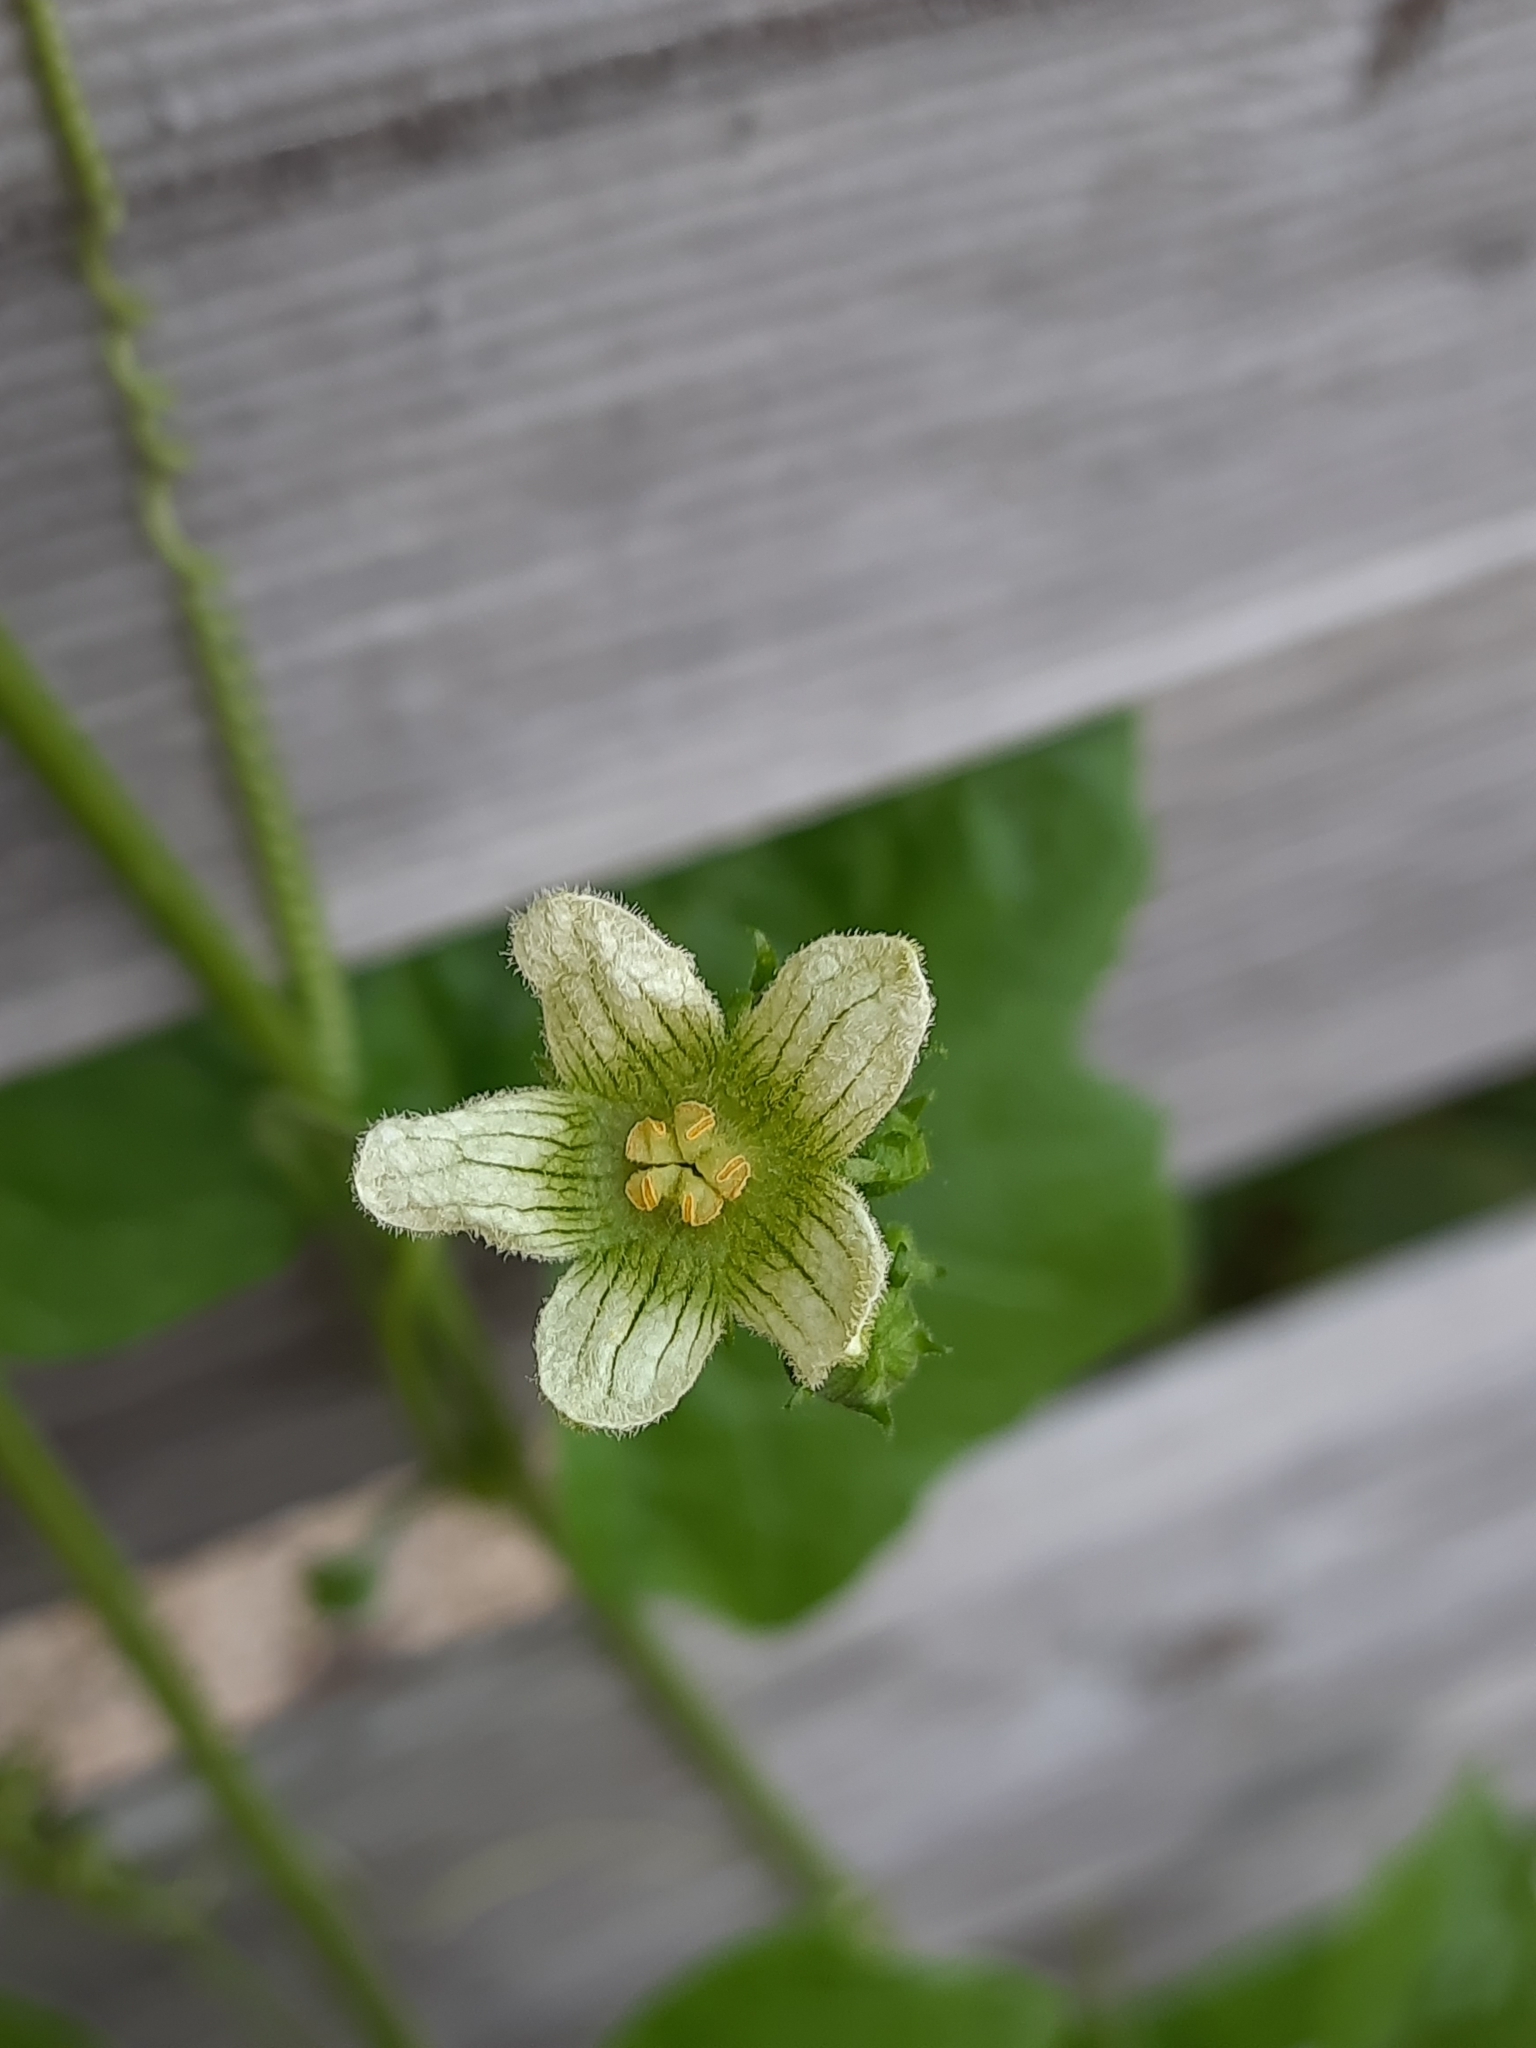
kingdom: Plantae
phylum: Tracheophyta
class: Magnoliopsida
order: Cucurbitales
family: Cucurbitaceae
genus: Bryonia
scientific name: Bryonia cretica
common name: Cretan bryony
